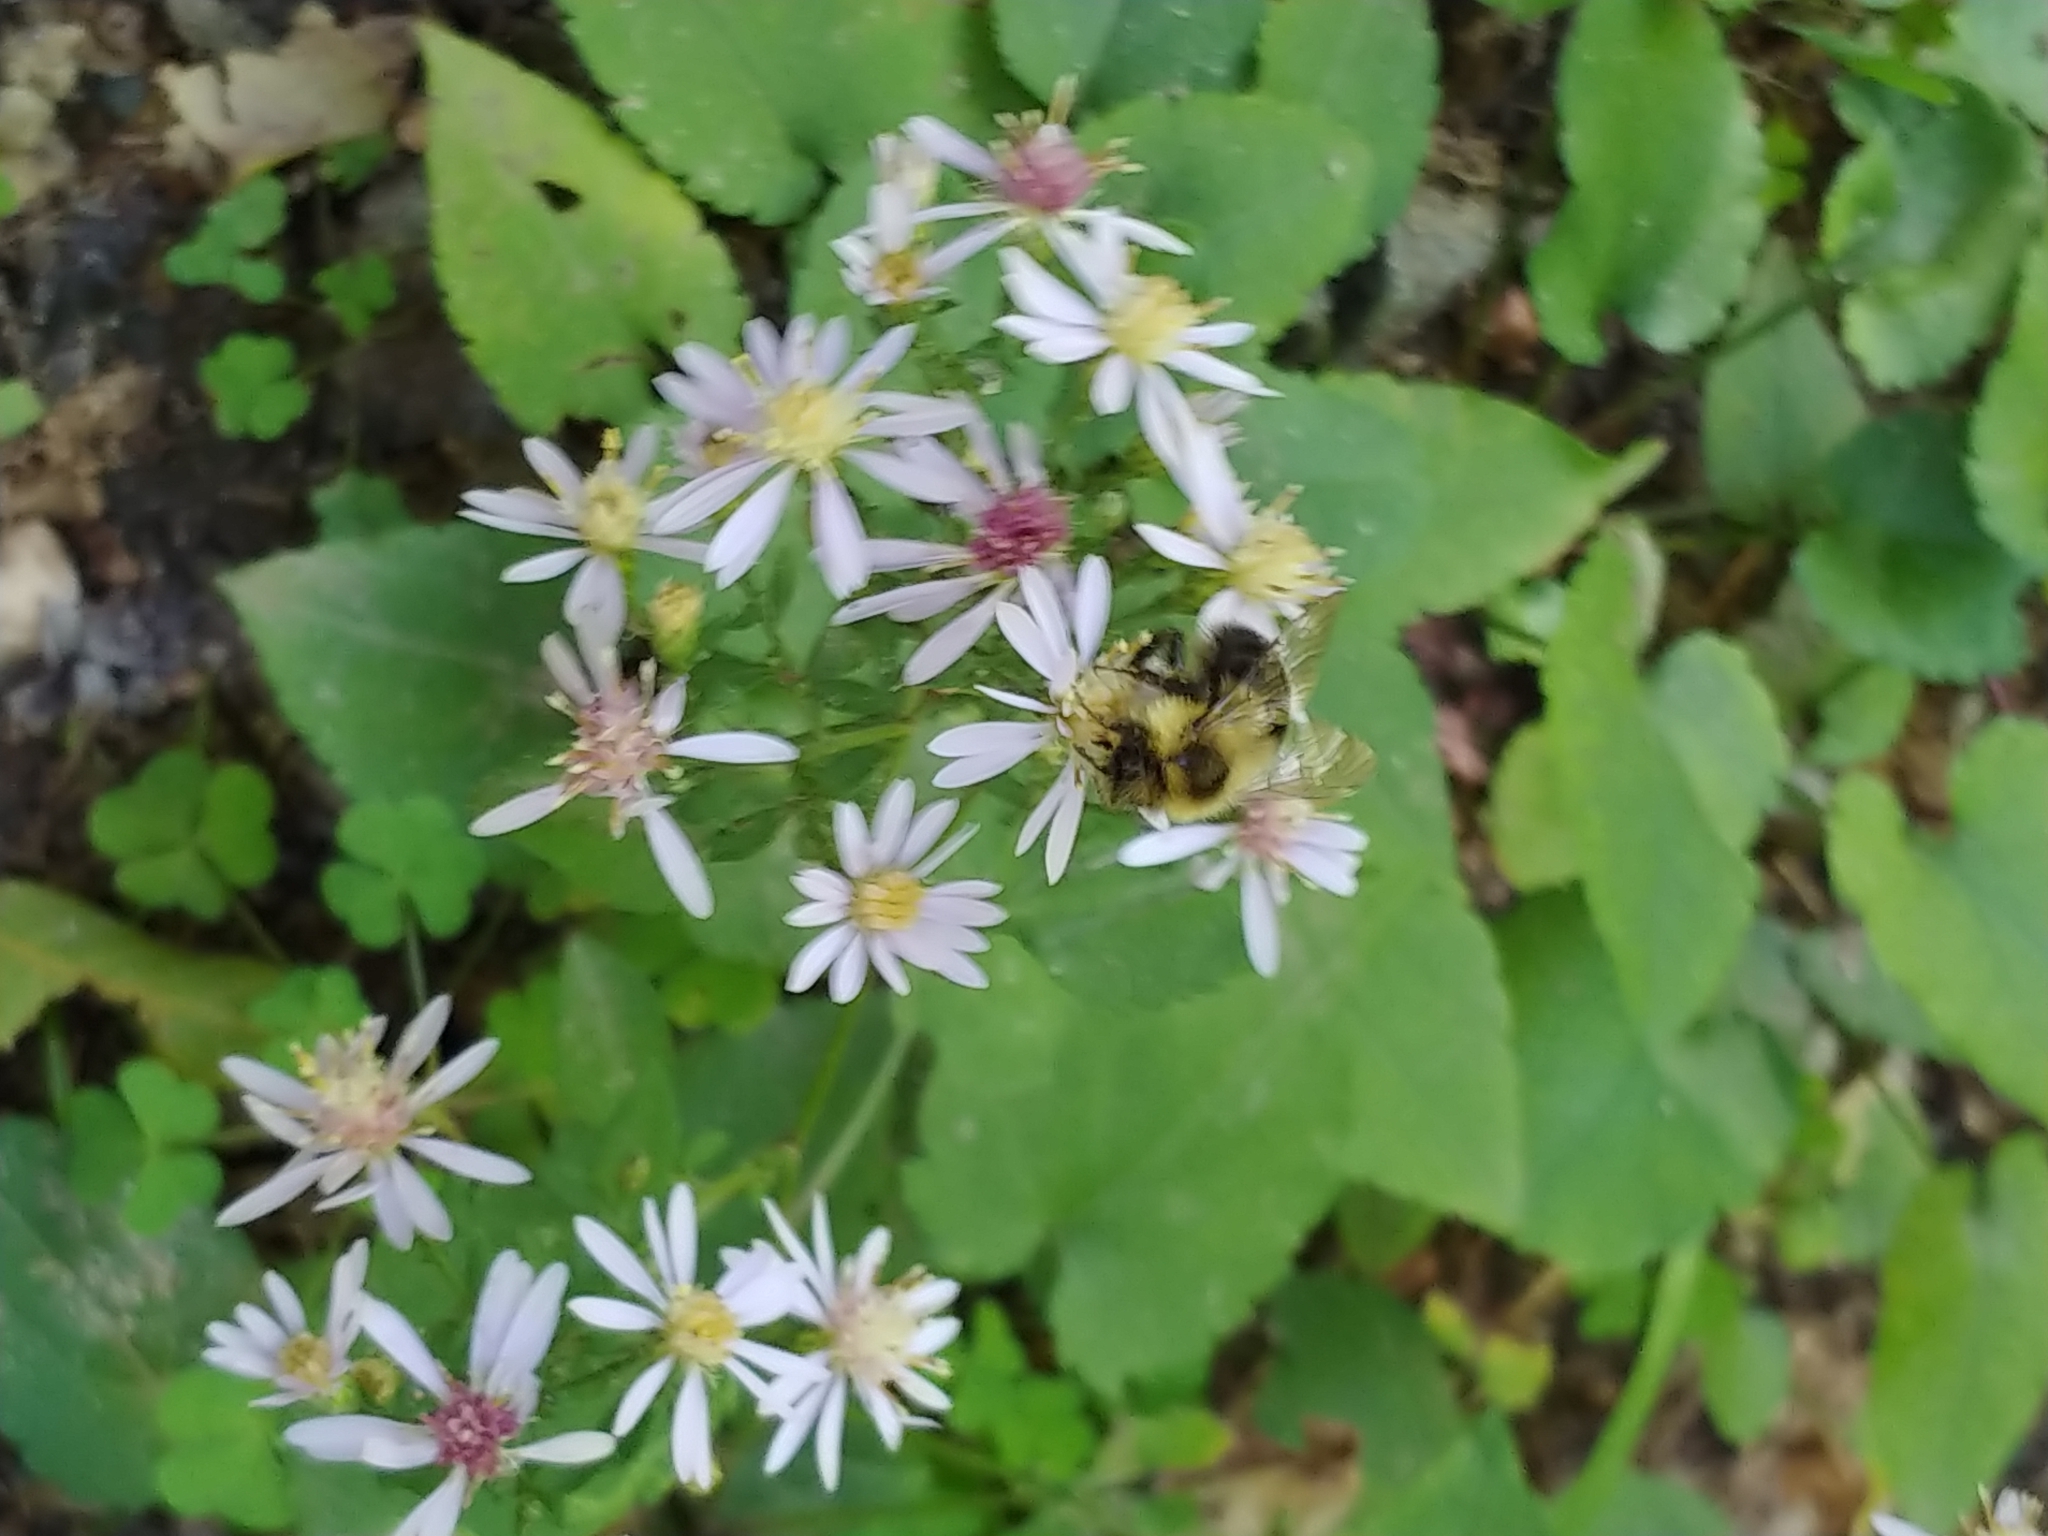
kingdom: Animalia
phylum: Arthropoda
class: Insecta
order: Hymenoptera
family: Apidae
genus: Bombus
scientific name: Bombus impatiens
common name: Common eastern bumble bee
